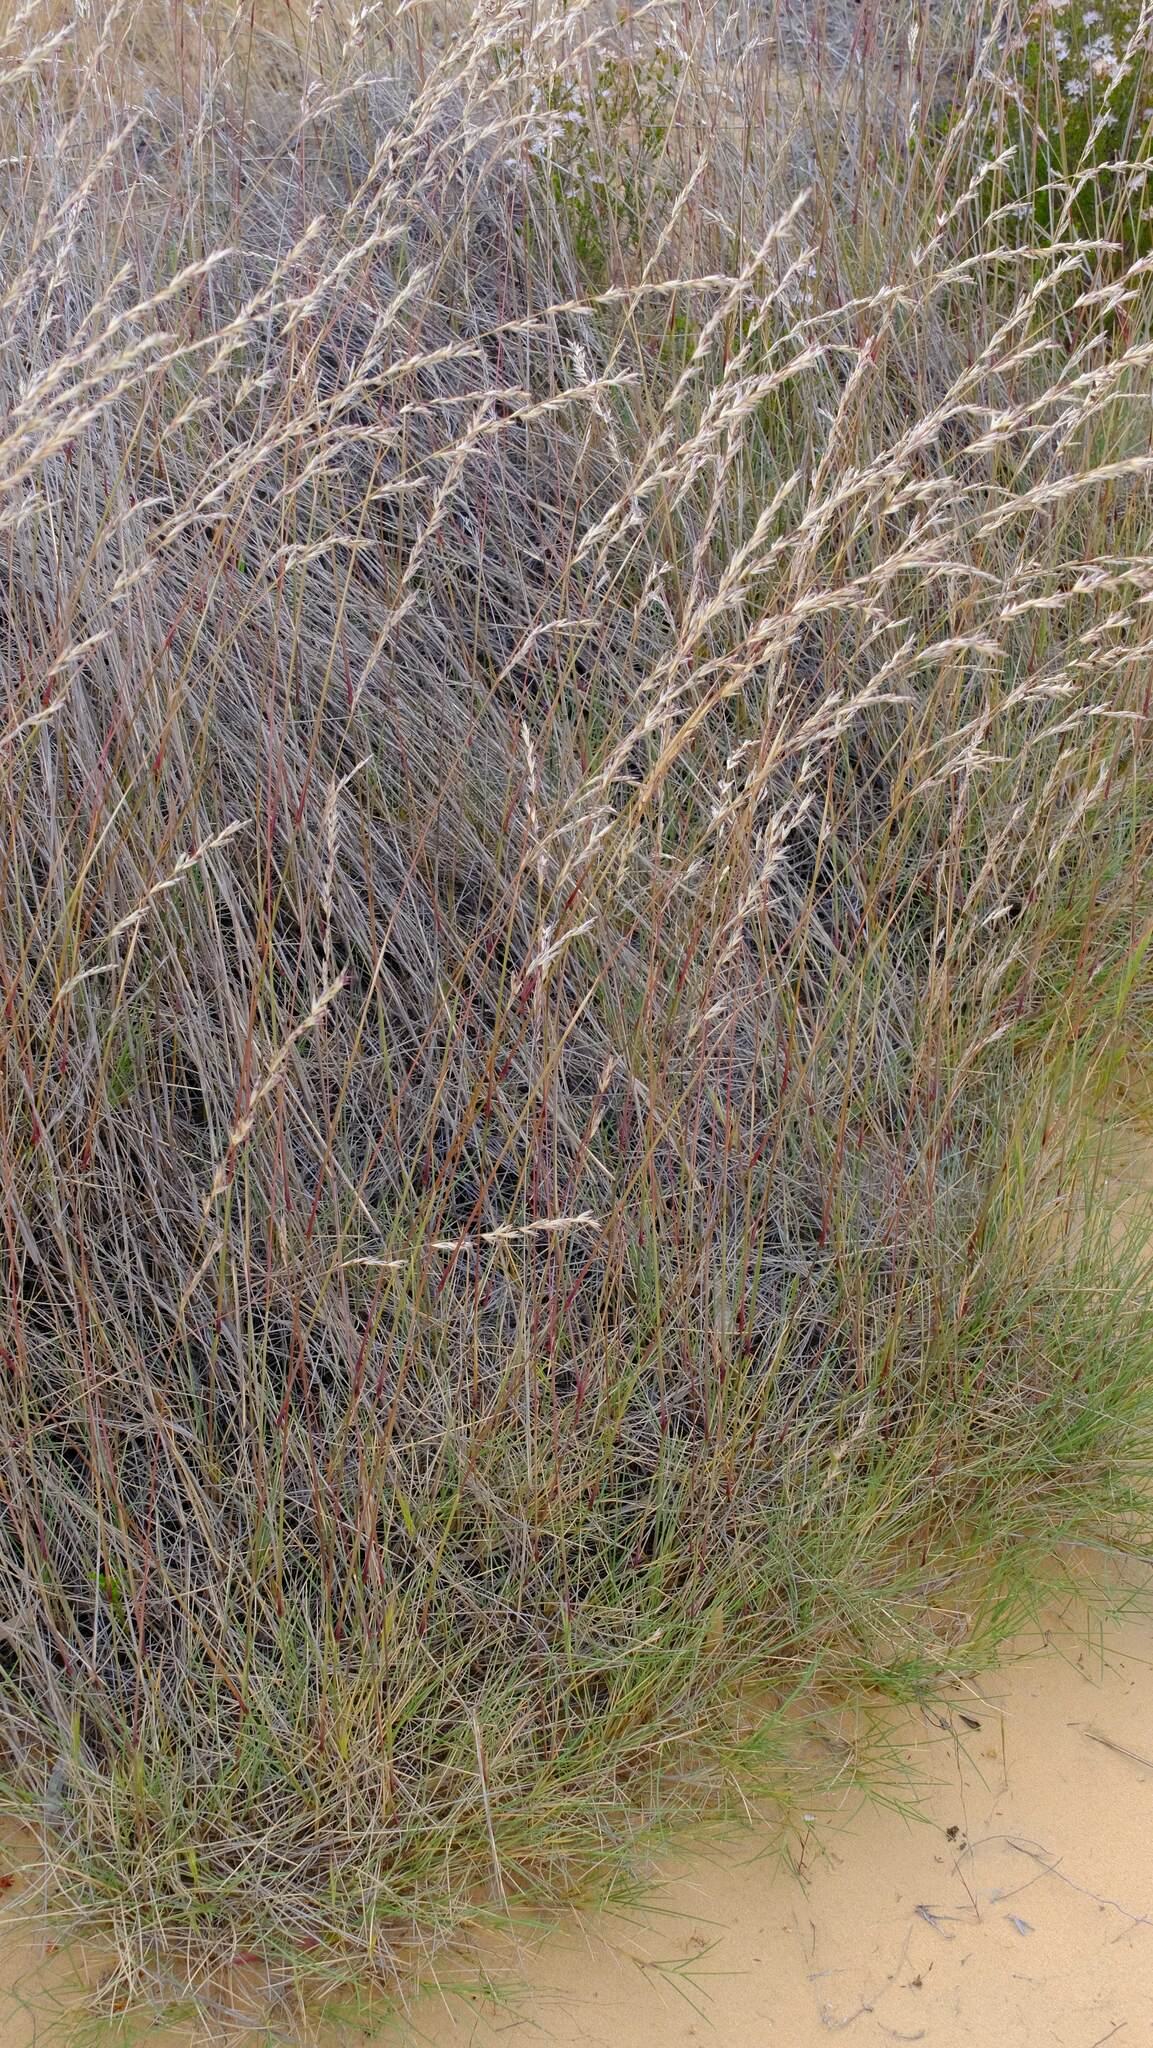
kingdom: Plantae
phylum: Tracheophyta
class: Liliopsida
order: Poales
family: Poaceae
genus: Triodia
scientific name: Triodia scariosa
